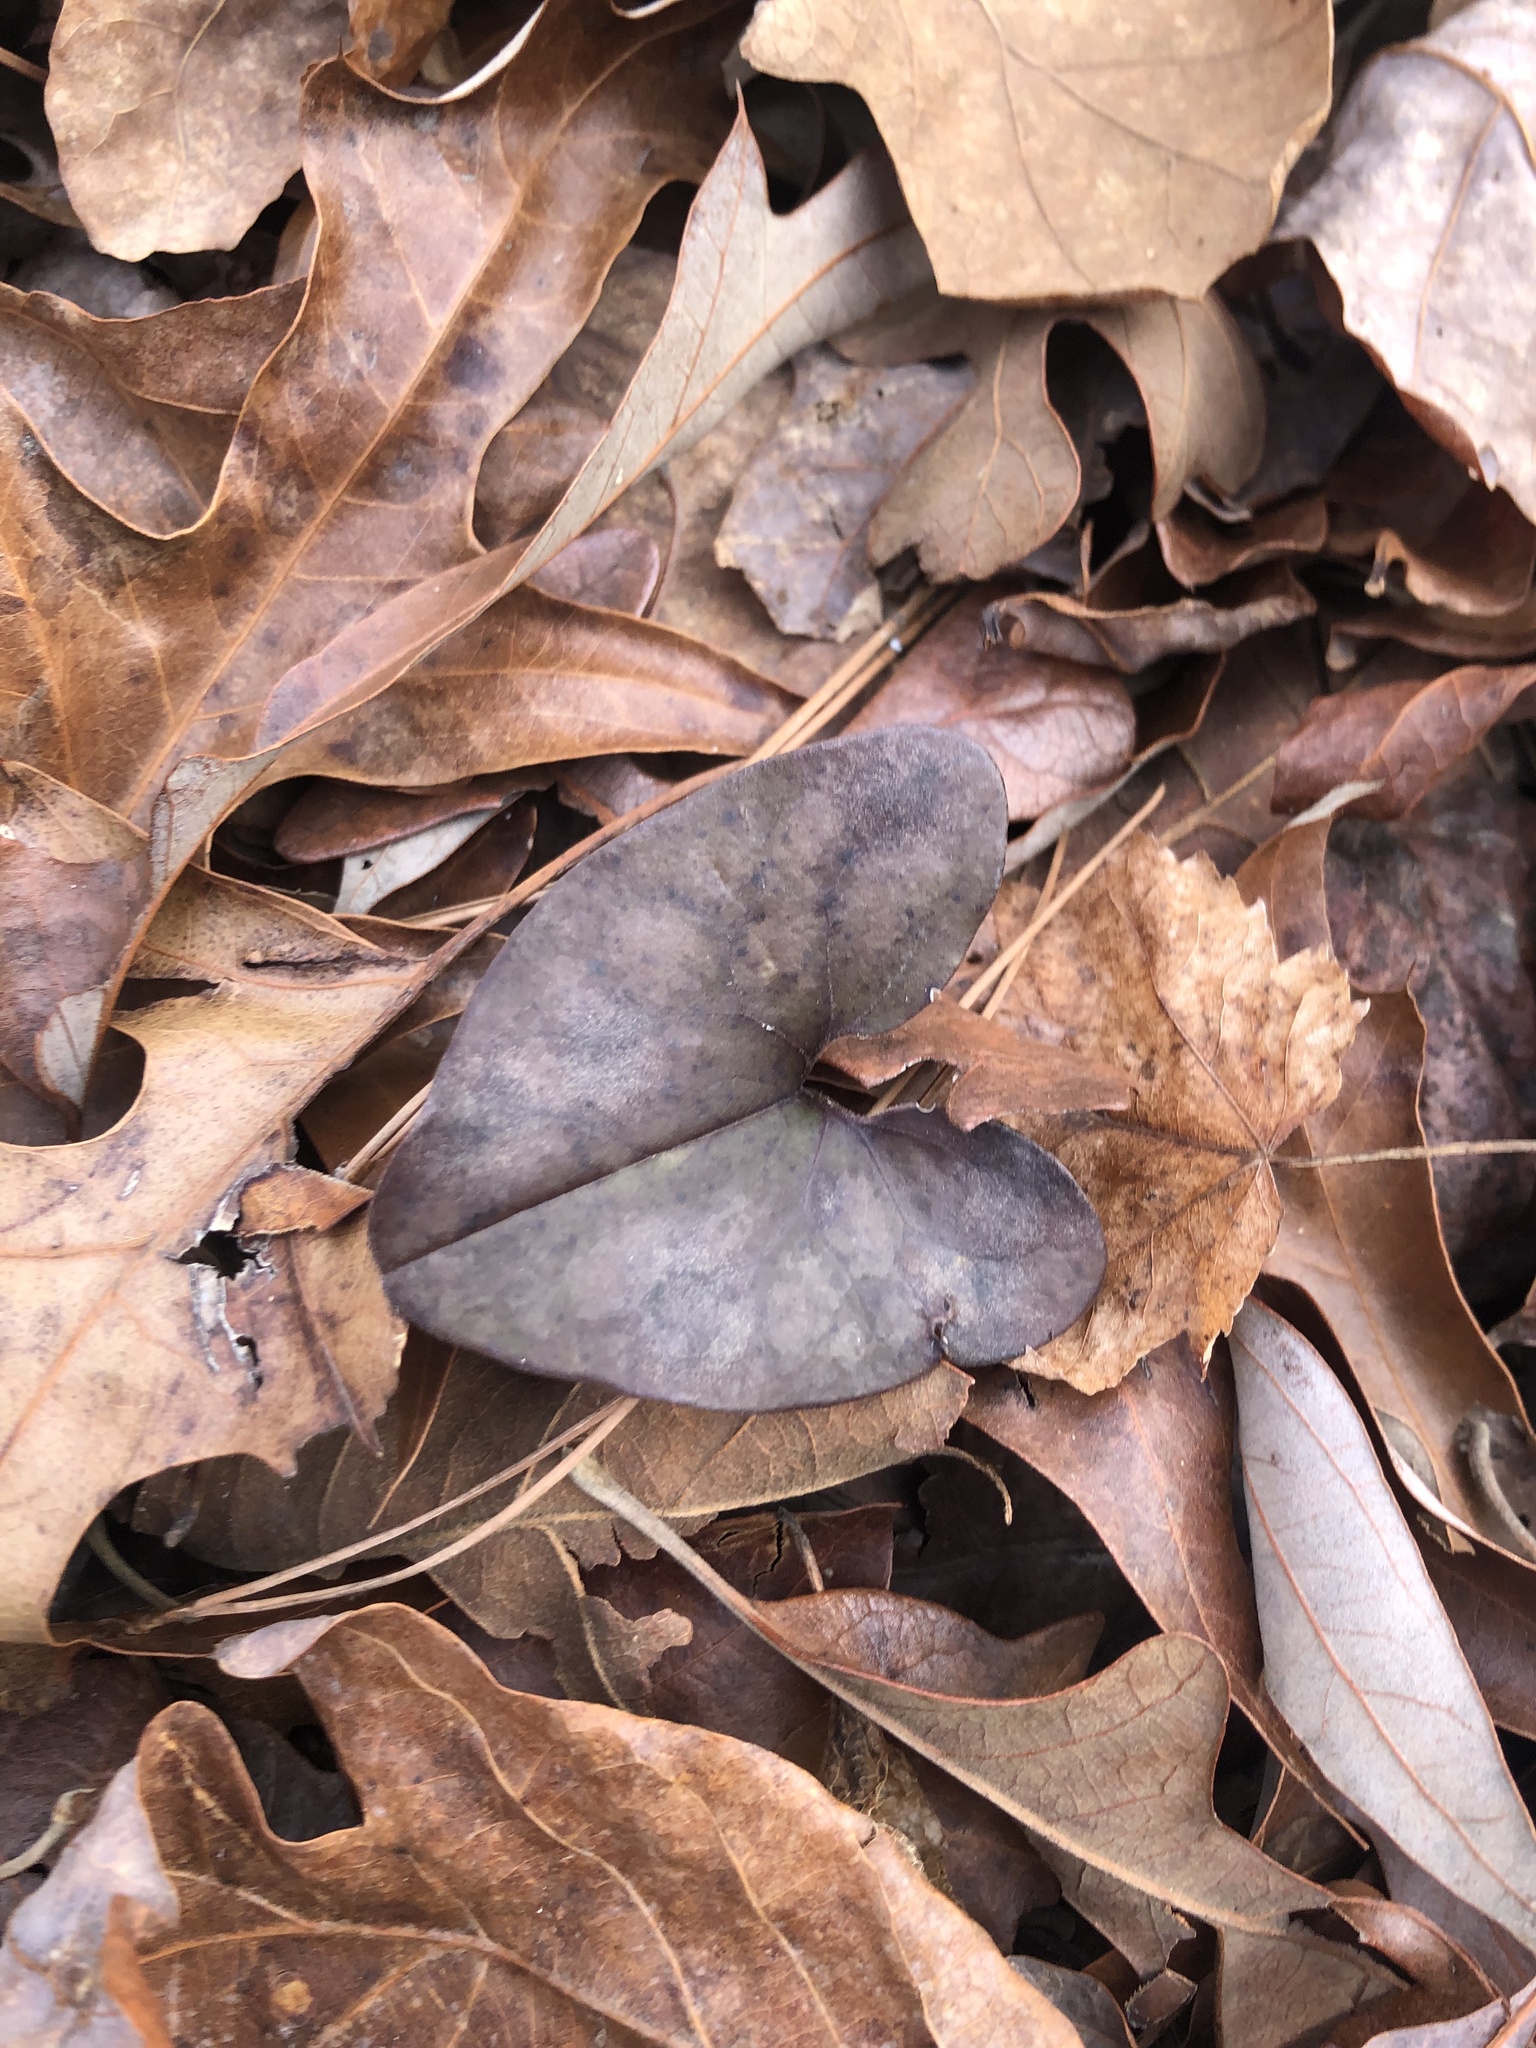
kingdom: Plantae
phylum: Tracheophyta
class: Magnoliopsida
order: Piperales
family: Aristolochiaceae
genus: Hexastylis
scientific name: Hexastylis arifolia
